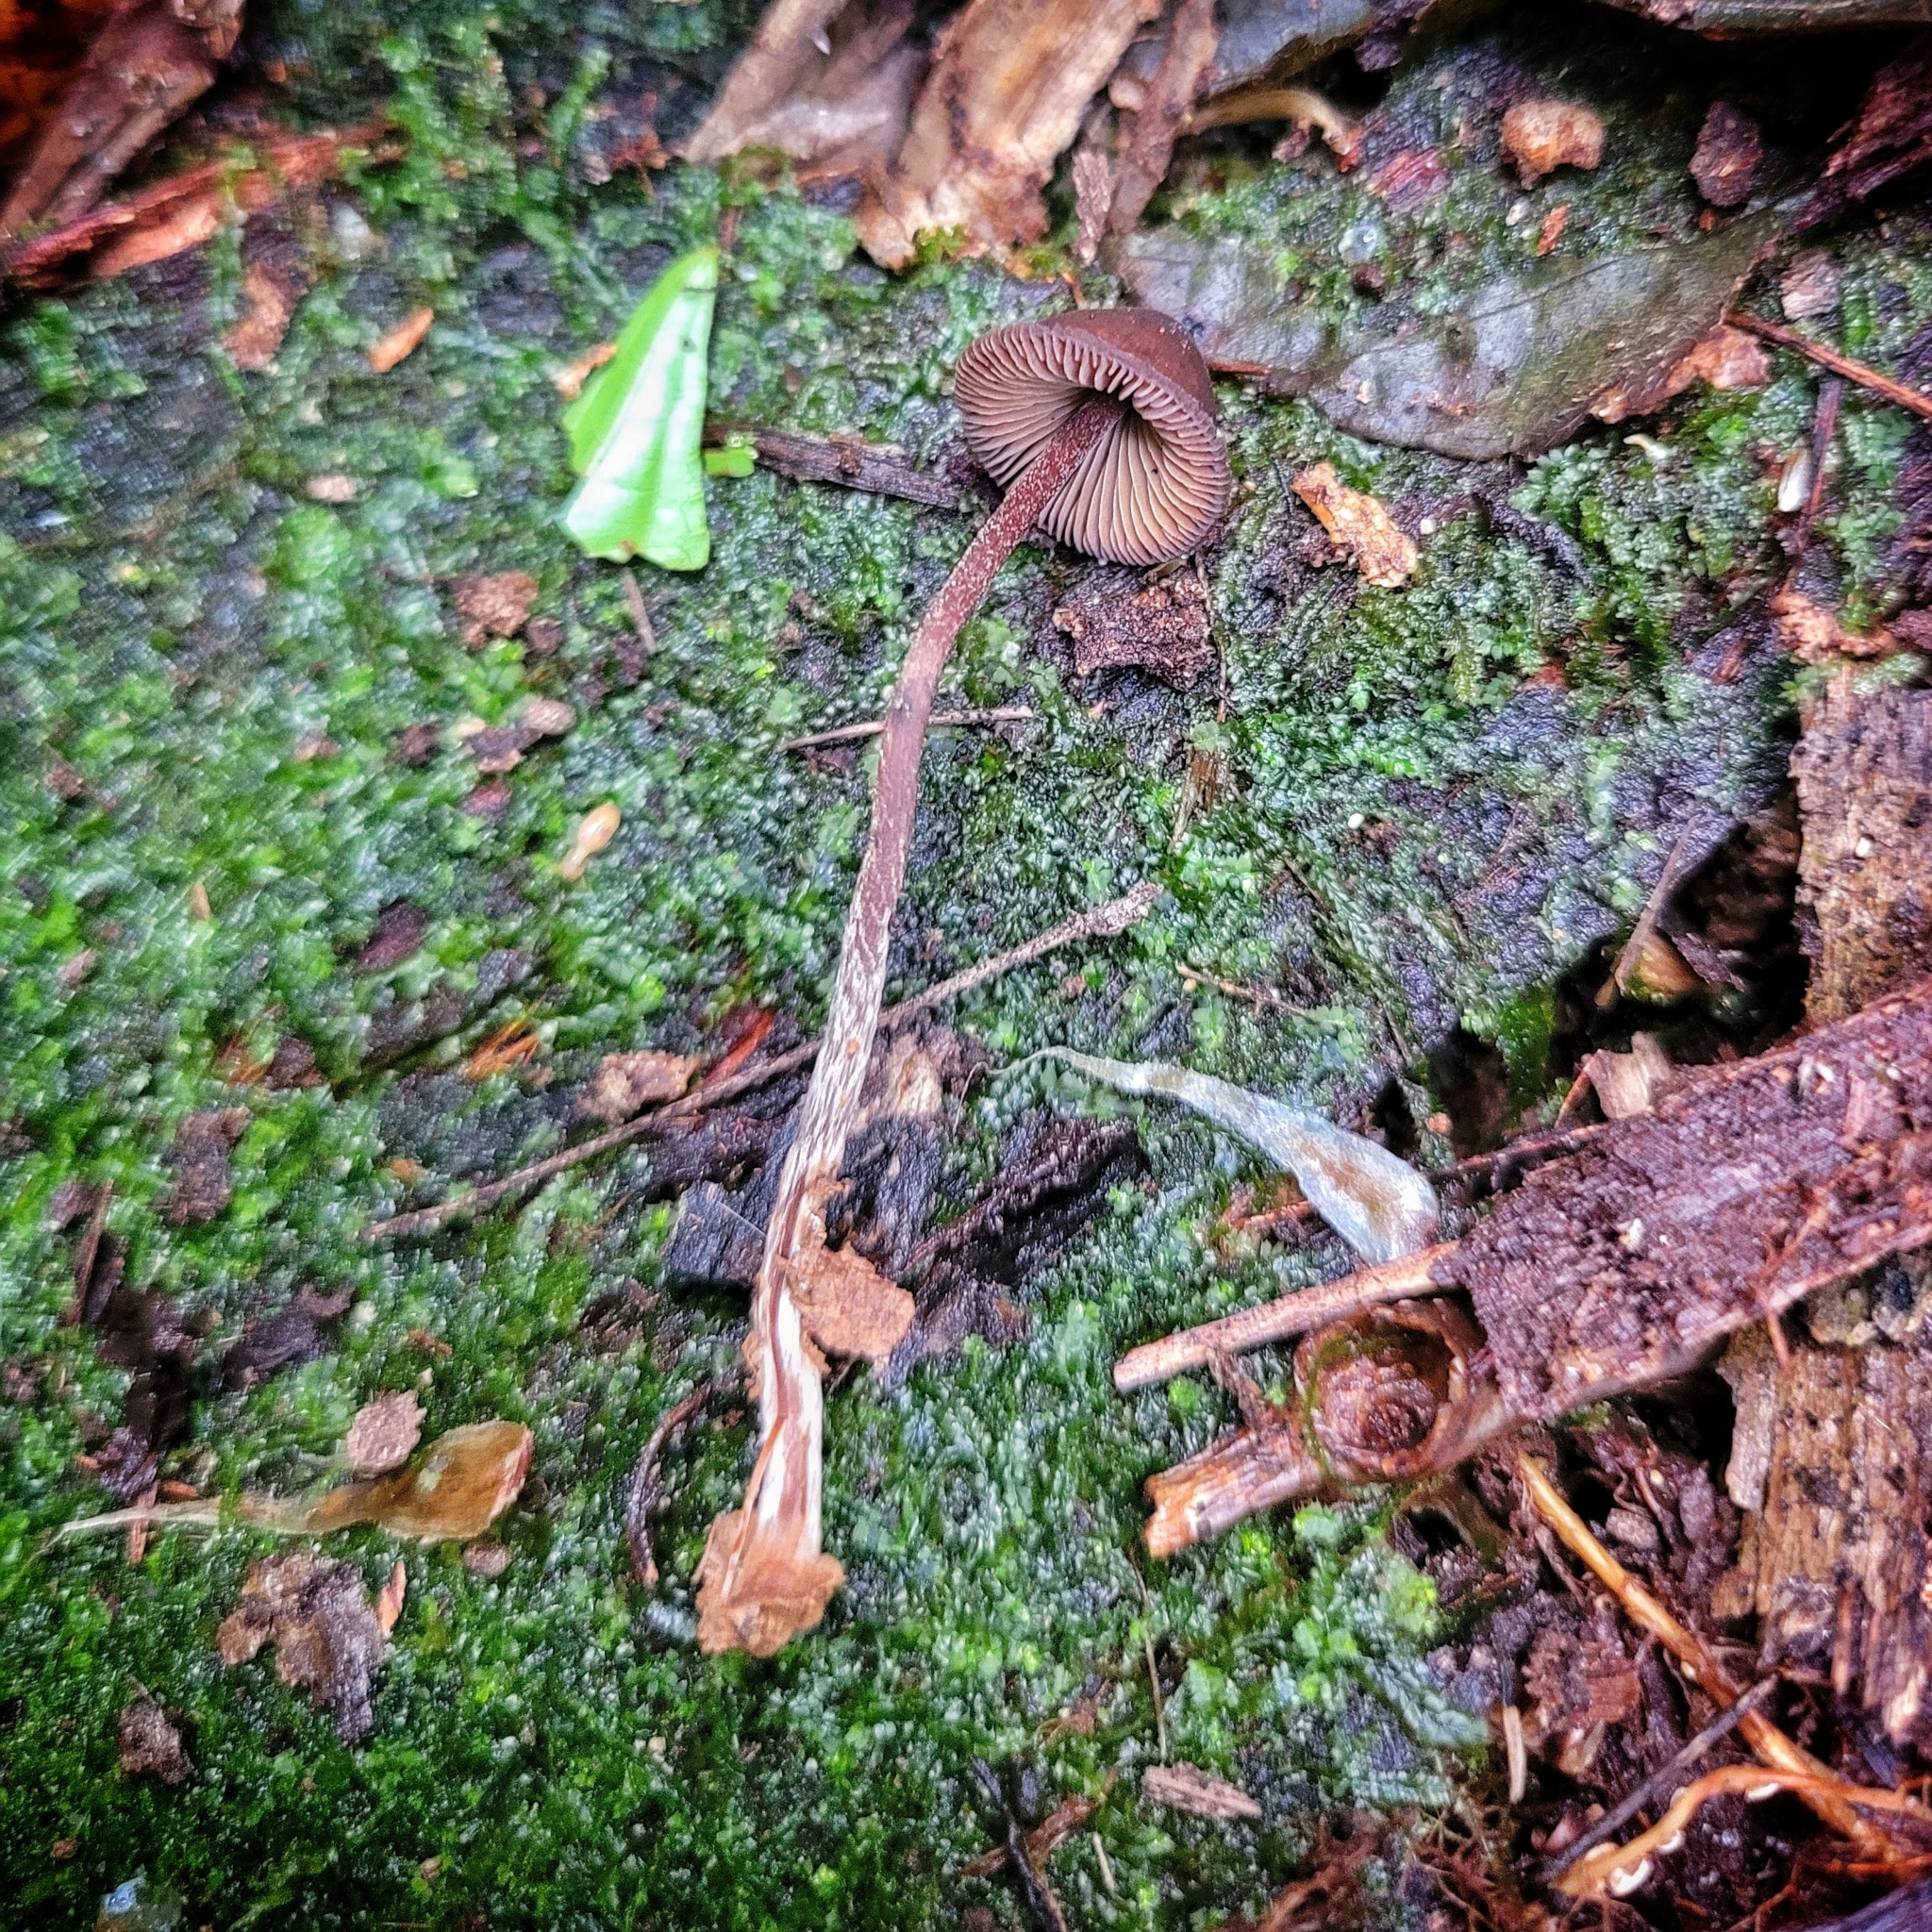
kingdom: Fungi
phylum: Basidiomycota
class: Agaricomycetes
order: Agaricales
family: Hymenogastraceae
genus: Psilocybe
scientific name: Psilocybe guilartensis
